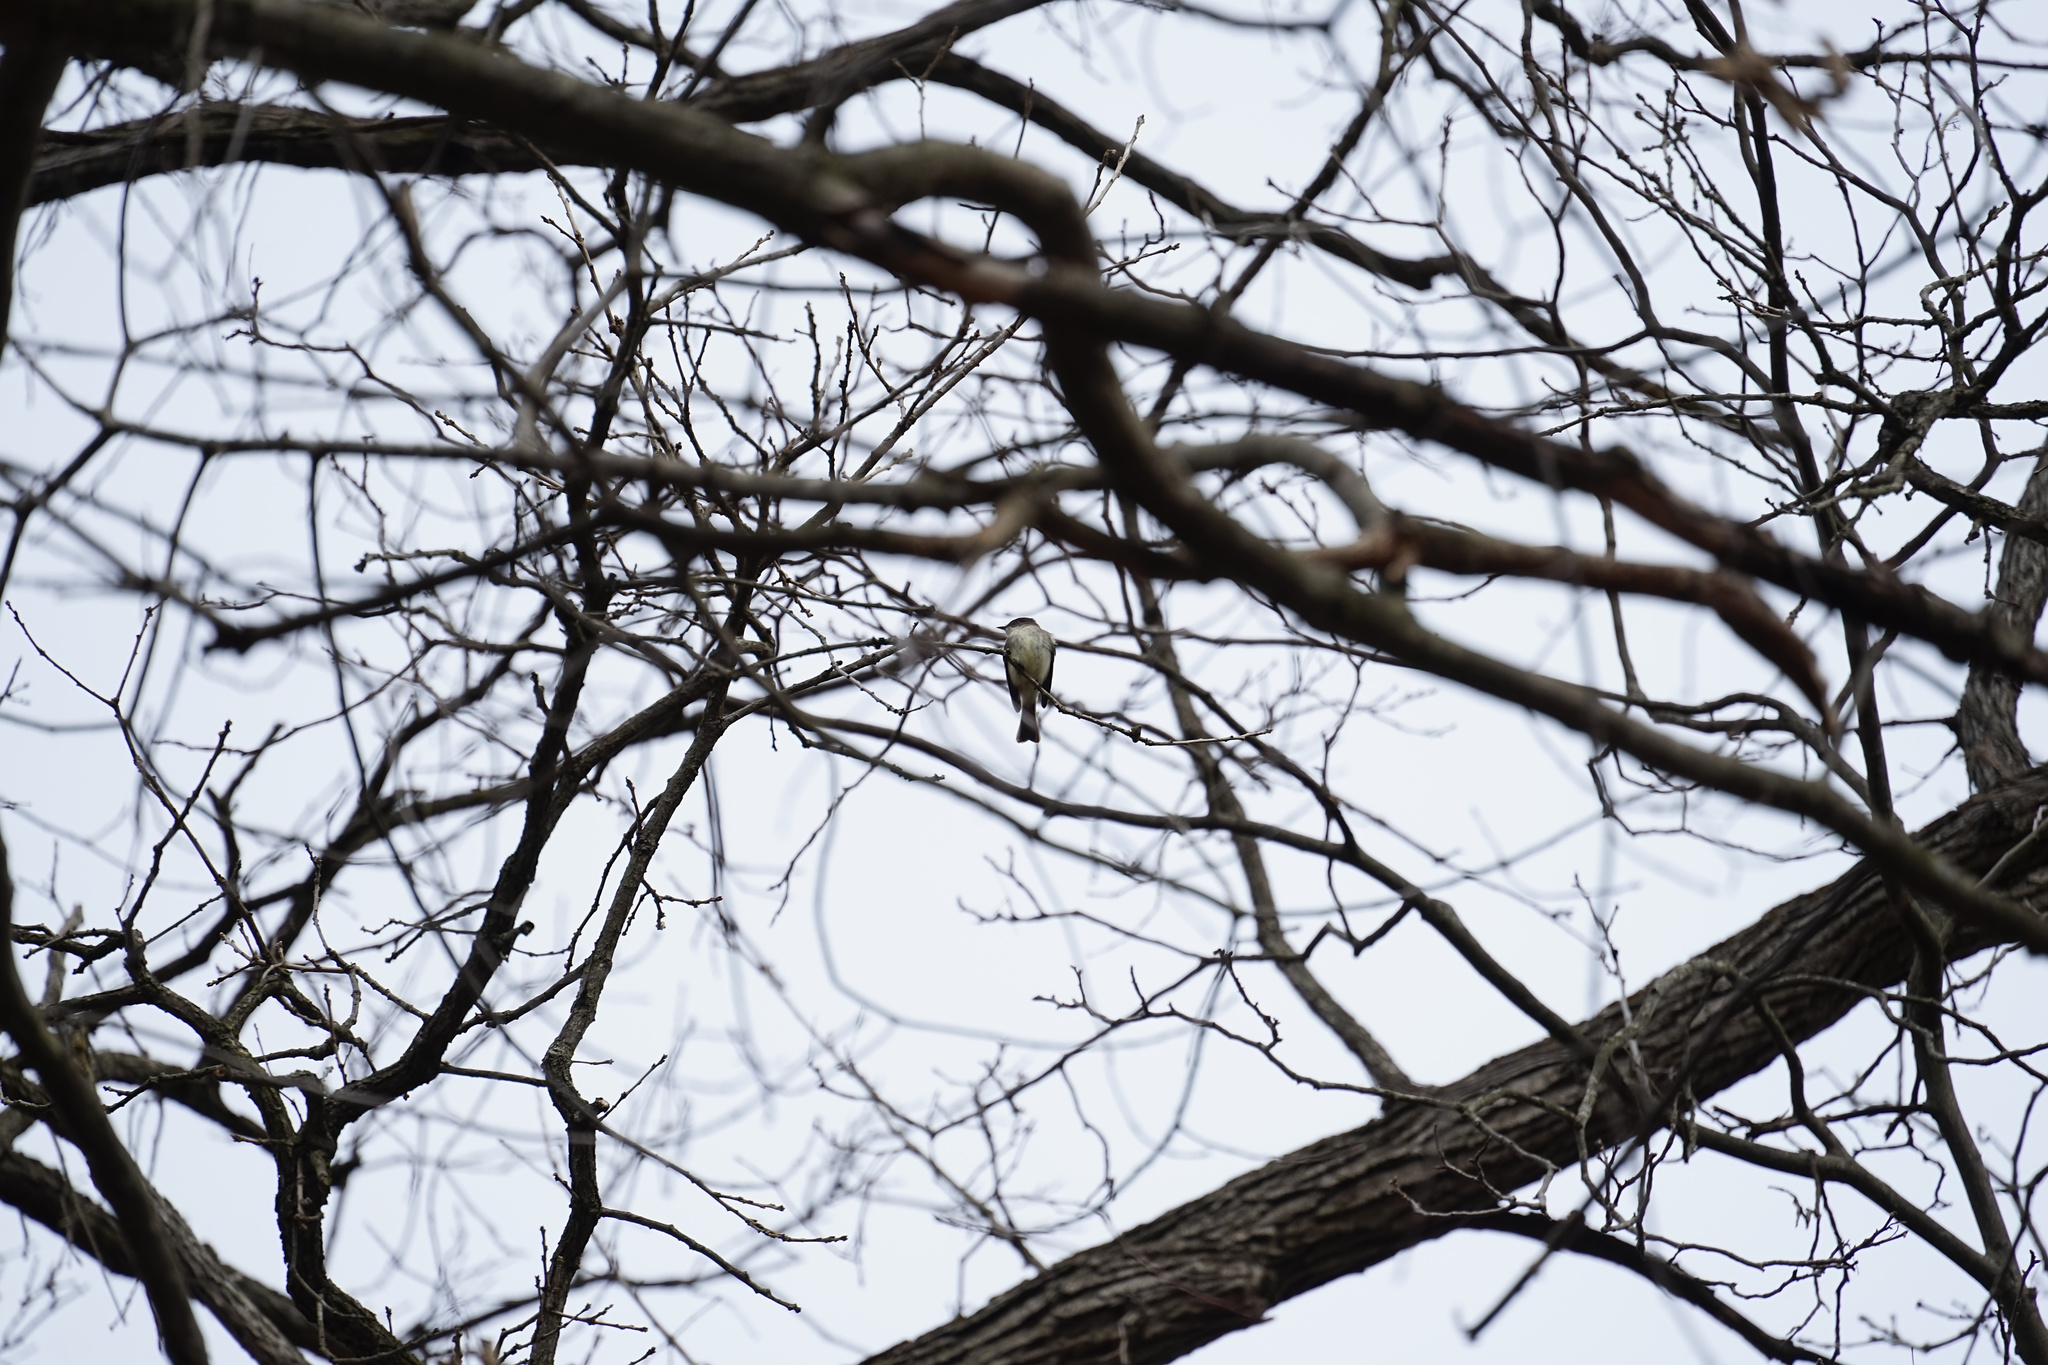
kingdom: Animalia
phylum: Chordata
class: Aves
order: Passeriformes
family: Tyrannidae
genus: Sayornis
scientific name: Sayornis phoebe
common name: Eastern phoebe
